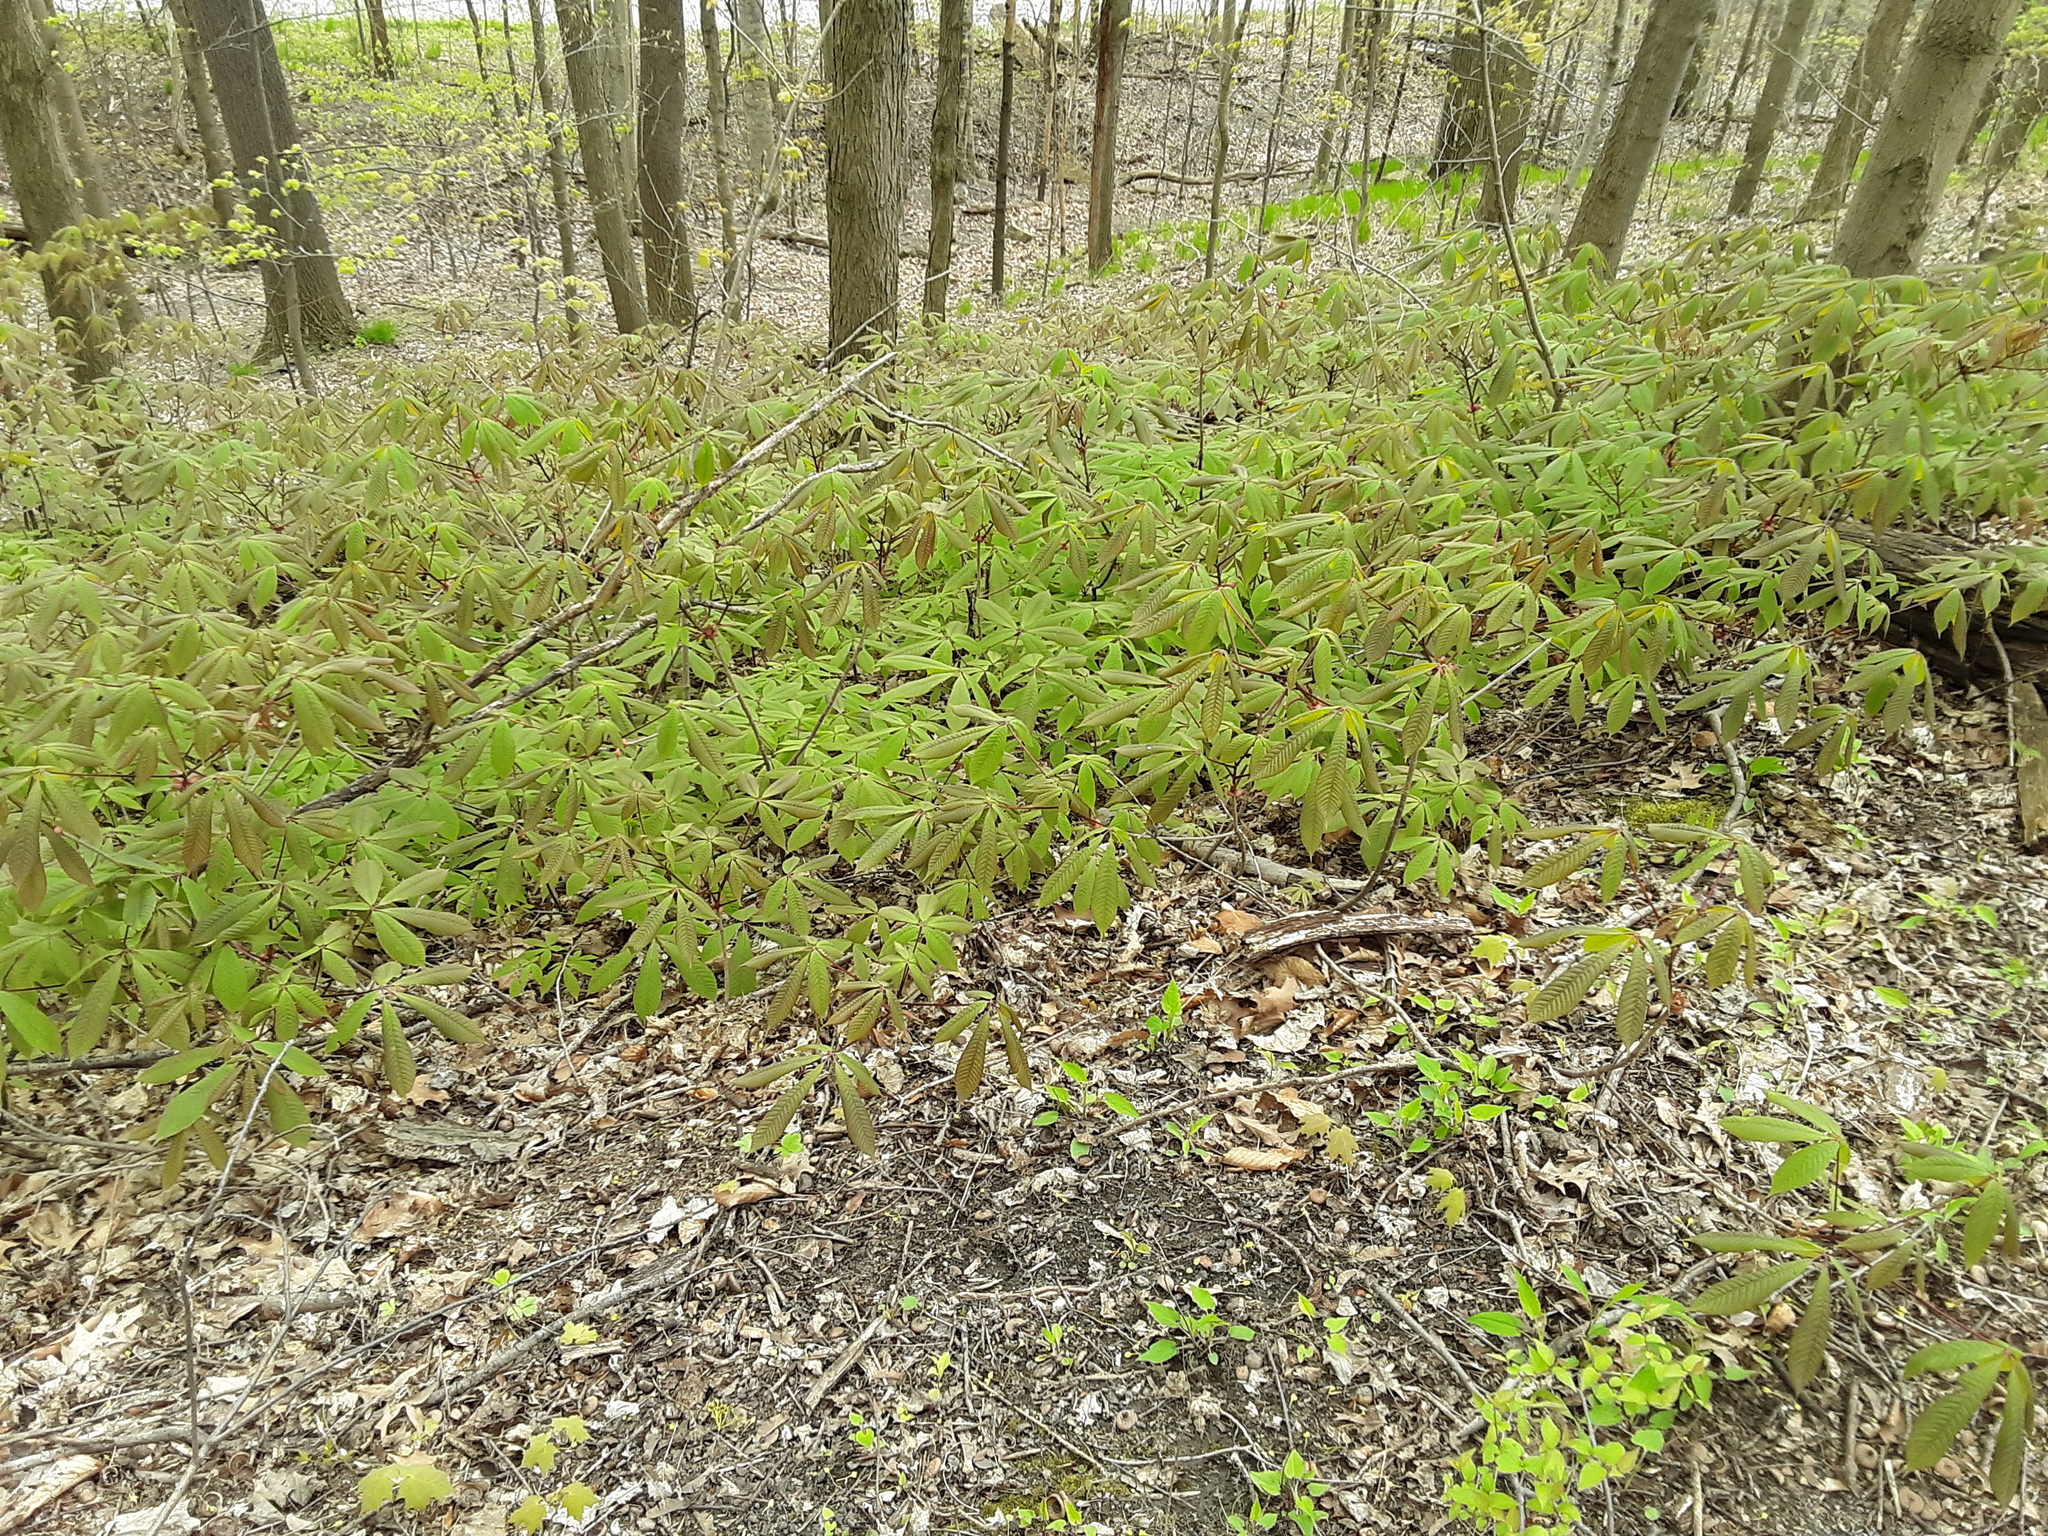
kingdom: Plantae
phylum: Tracheophyta
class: Magnoliopsida
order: Sapindales
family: Sapindaceae
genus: Aesculus
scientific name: Aesculus pavia
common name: Red buckeye
